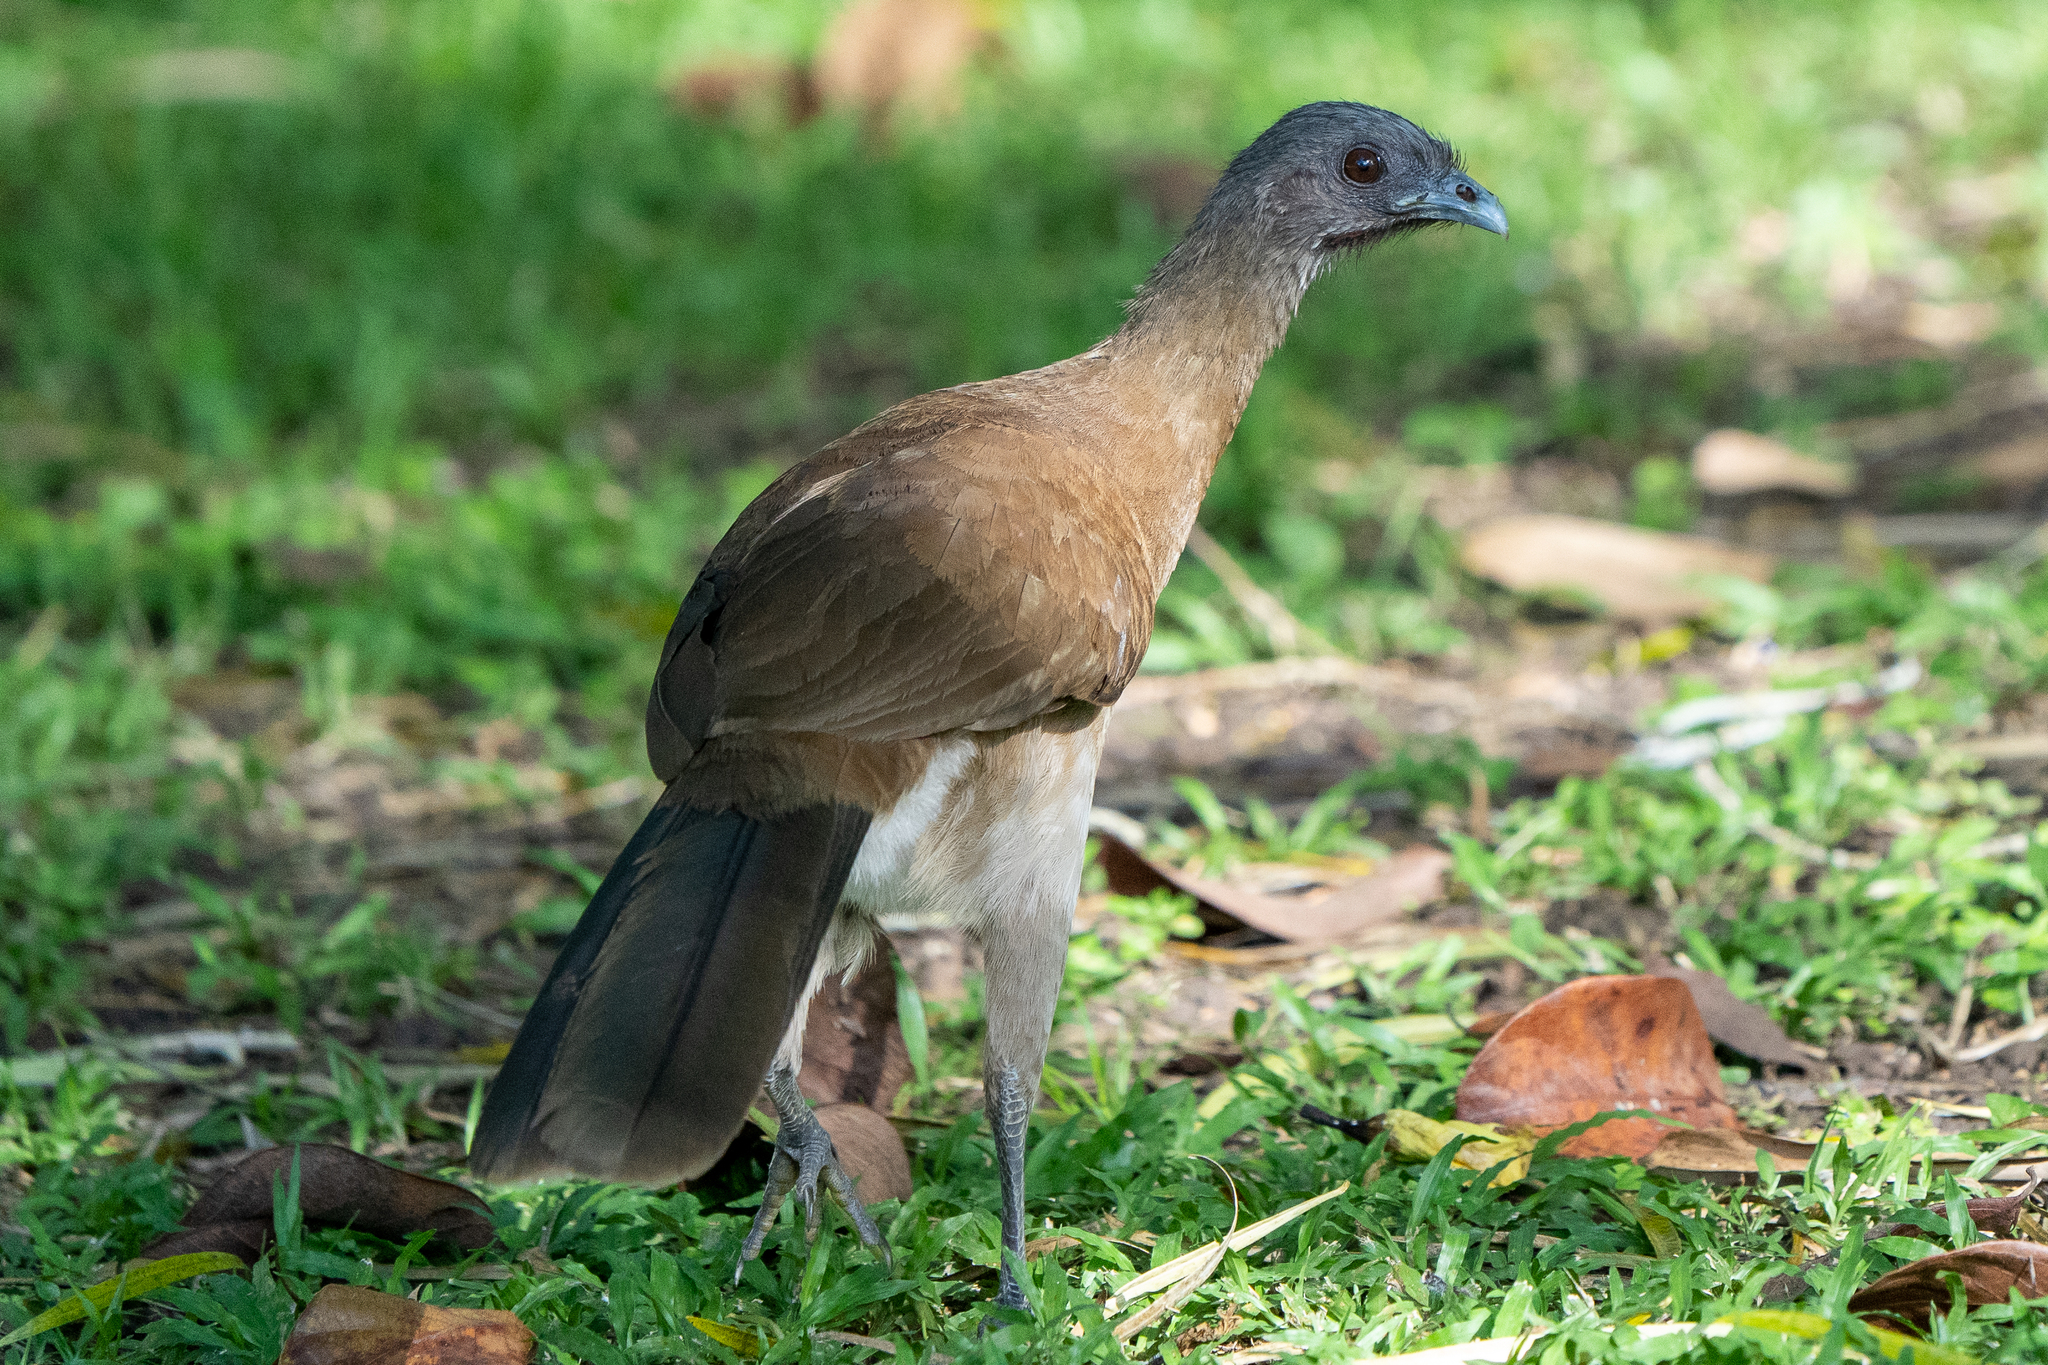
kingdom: Animalia
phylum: Chordata
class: Aves
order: Galliformes
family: Cracidae
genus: Ortalis
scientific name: Ortalis cinereiceps
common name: Grey-headed chachalaca
